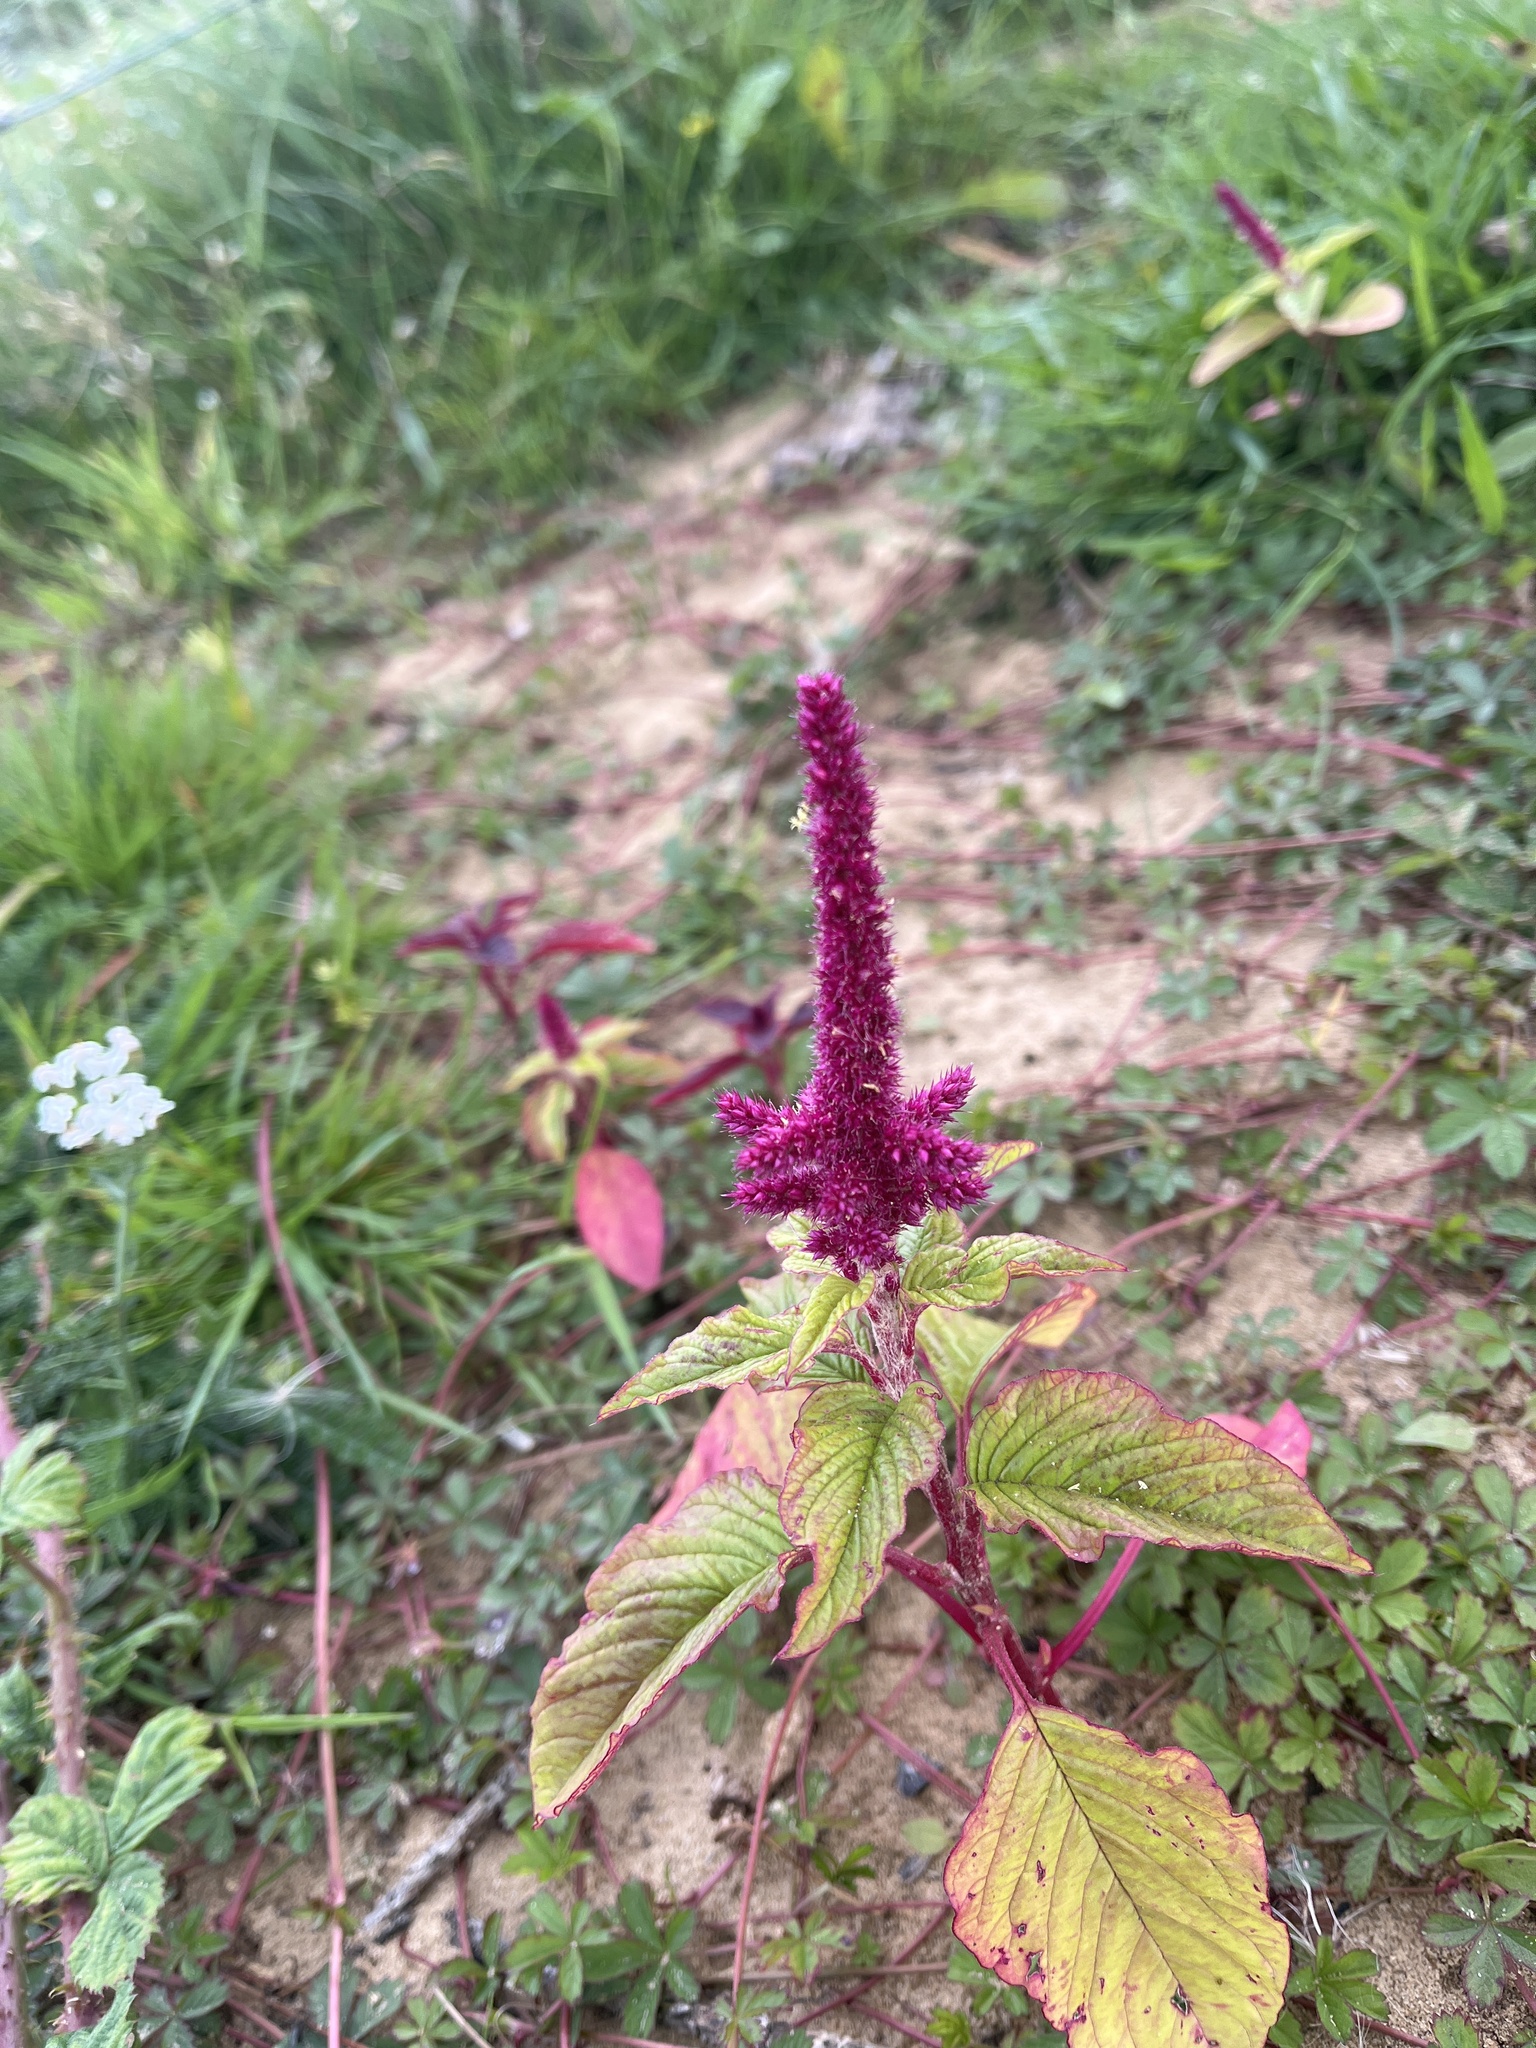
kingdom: Plantae
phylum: Tracheophyta
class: Magnoliopsida
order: Caryophyllales
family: Amaranthaceae
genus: Amaranthus
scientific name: Amaranthus cruentus
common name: Purple amaranth
